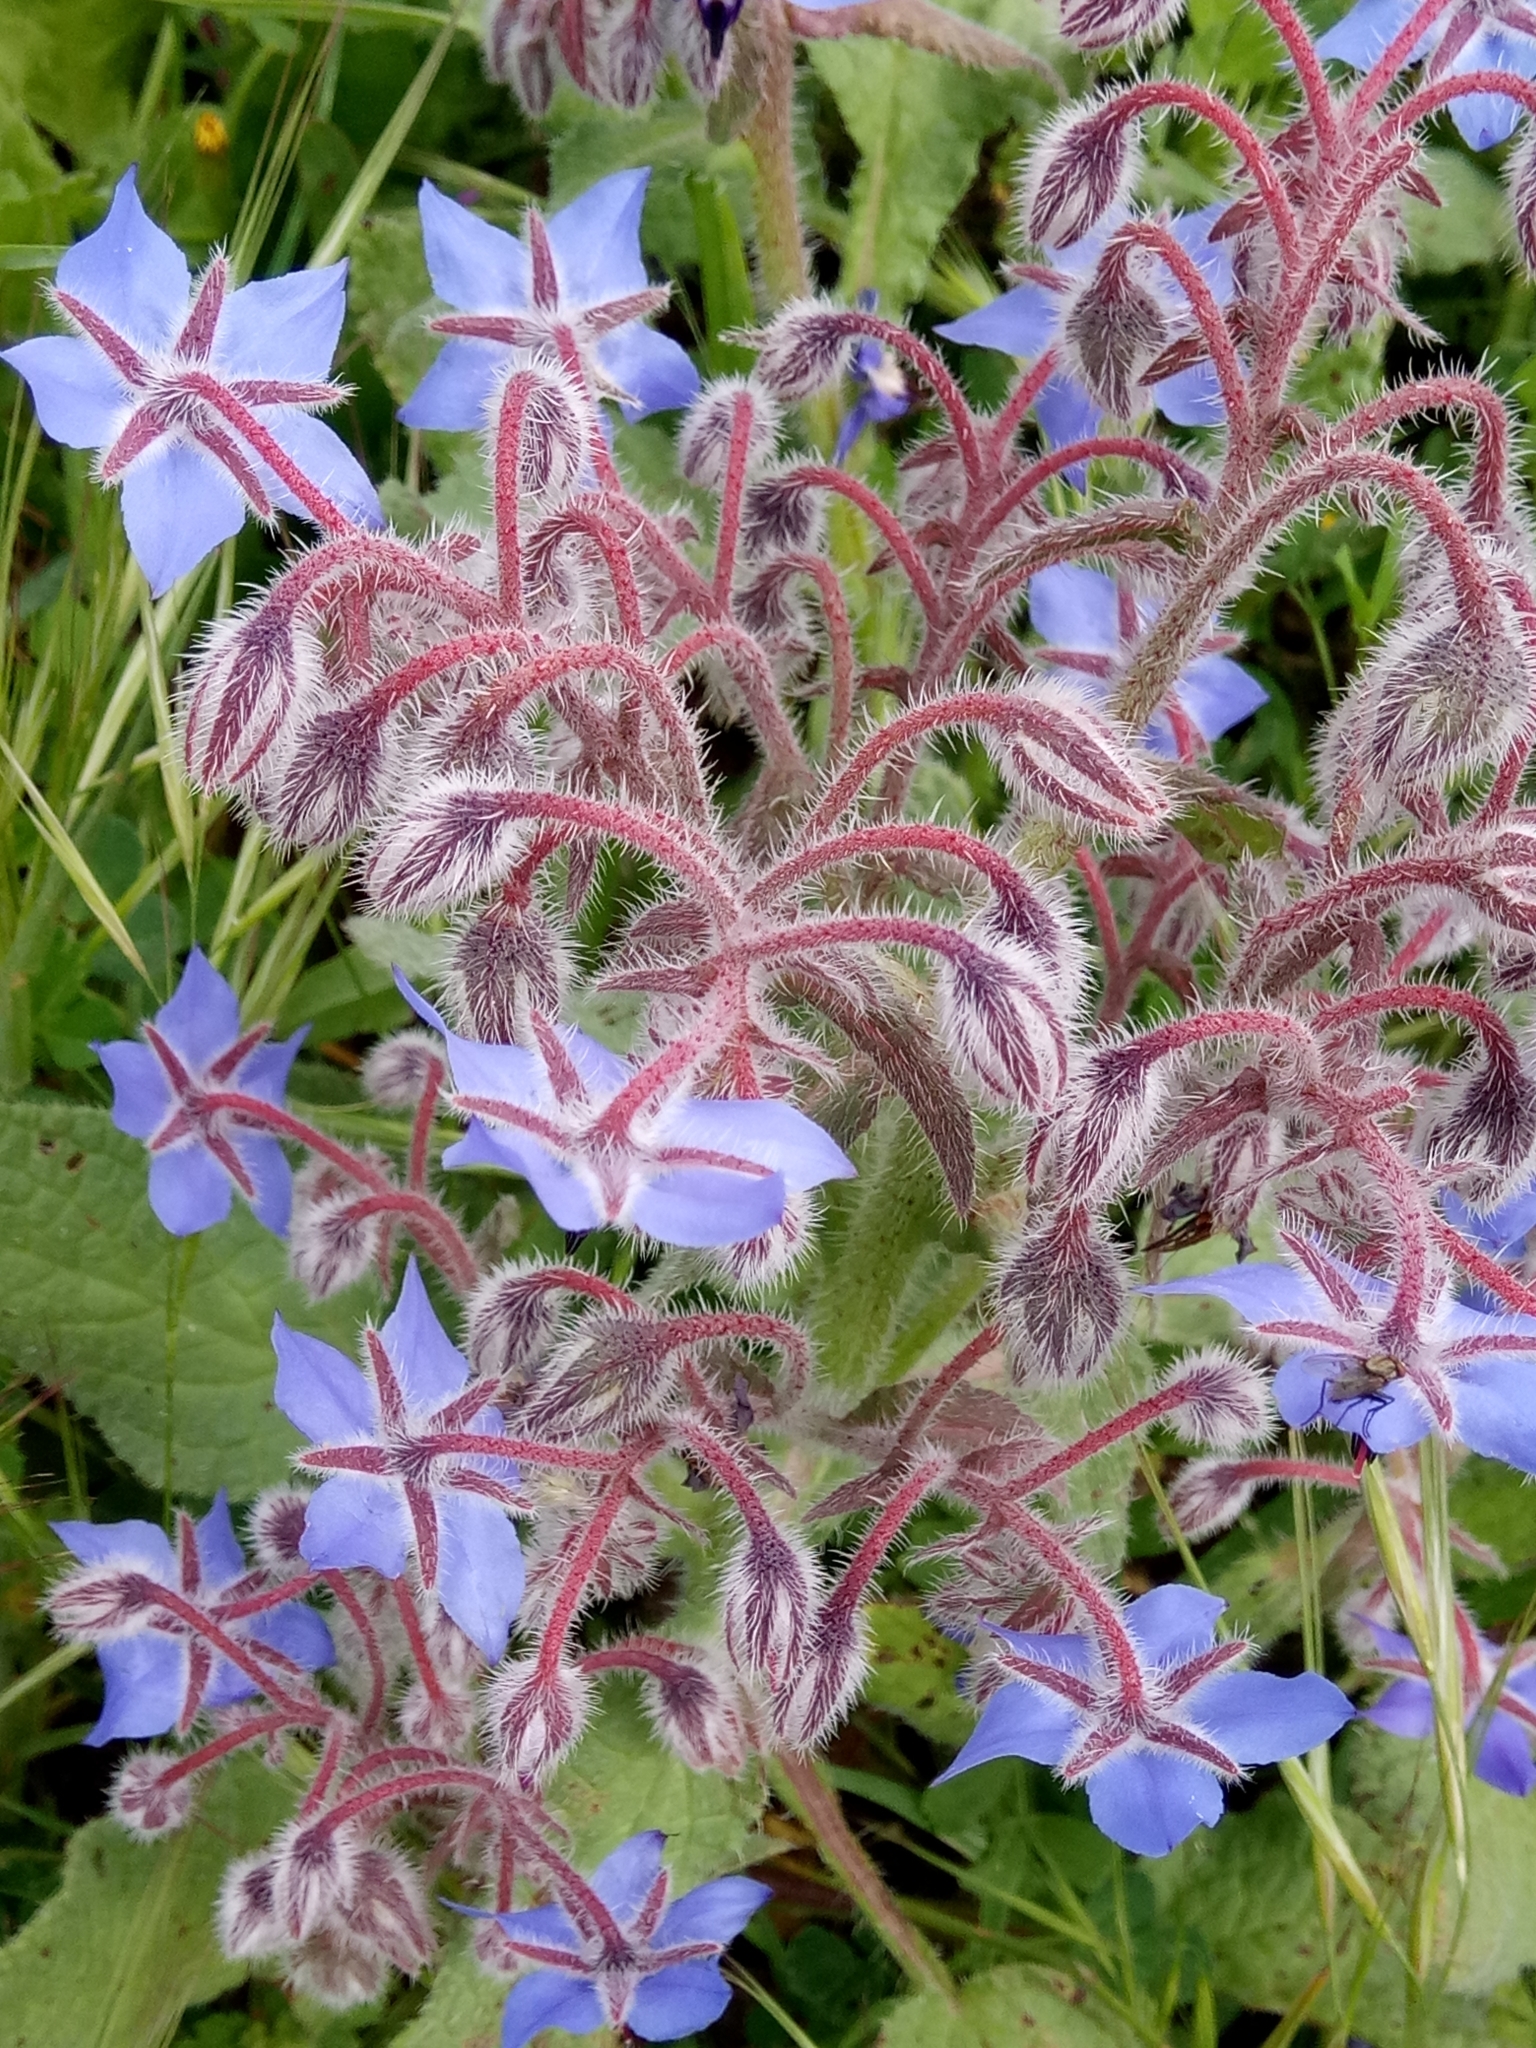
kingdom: Plantae
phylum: Tracheophyta
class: Magnoliopsida
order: Boraginales
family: Boraginaceae
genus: Borago
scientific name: Borago officinalis
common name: Borage
